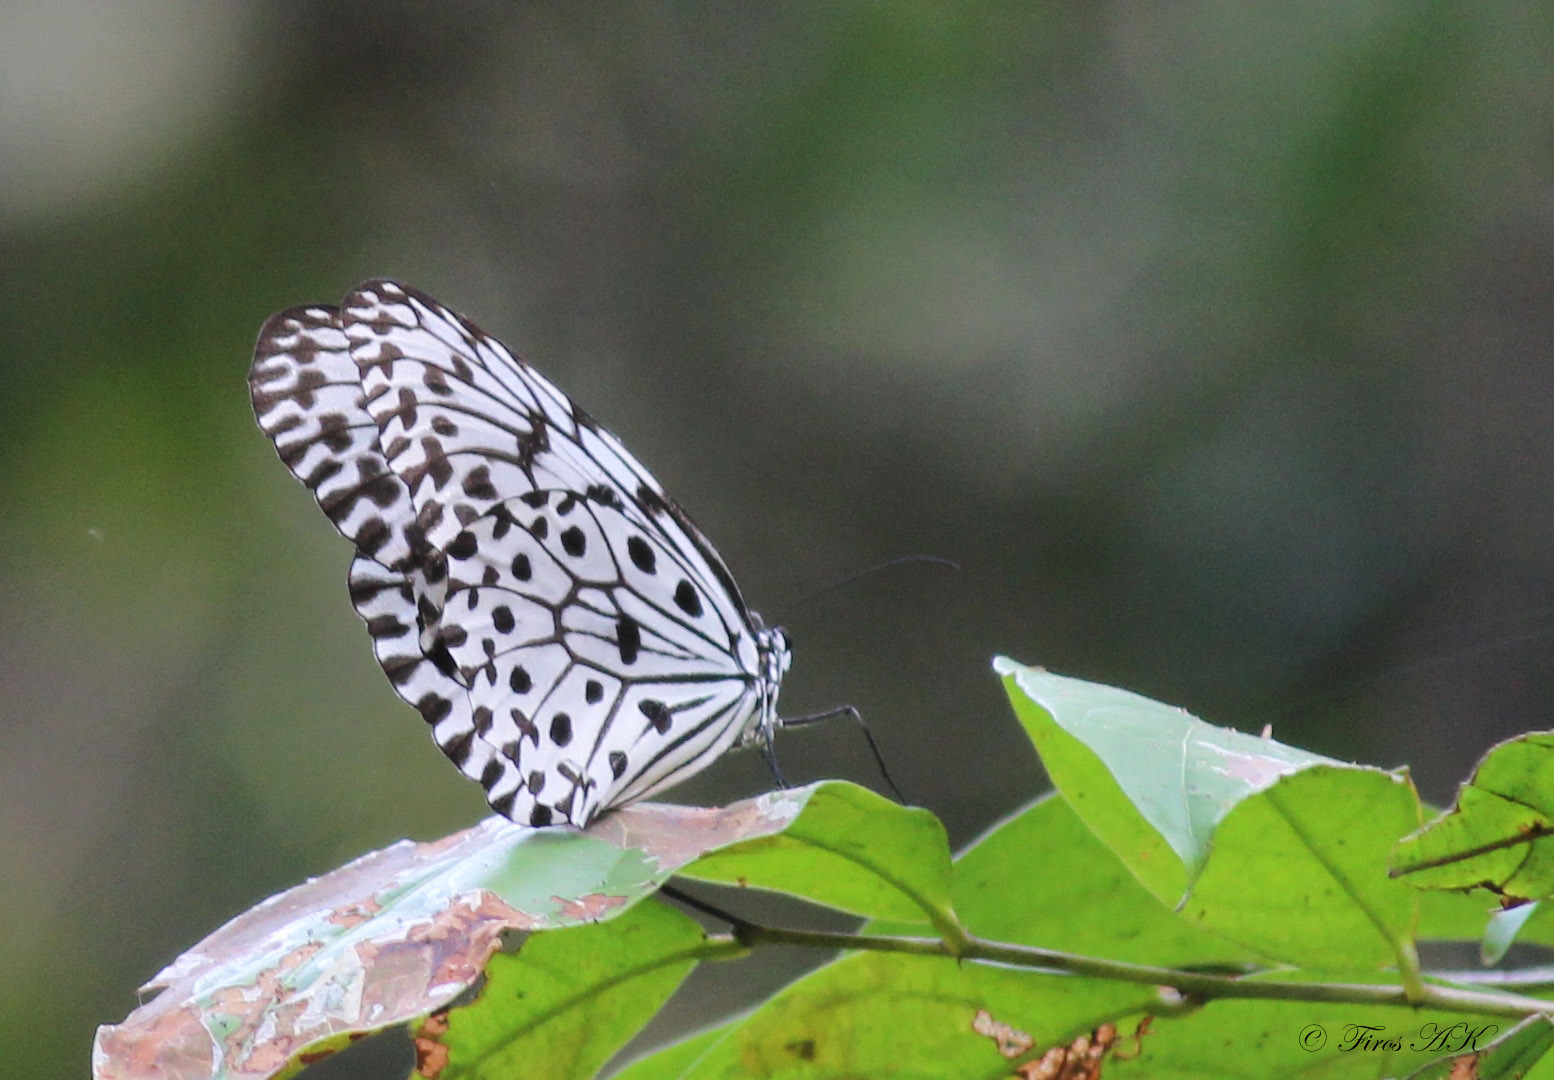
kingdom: Animalia
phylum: Arthropoda
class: Insecta
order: Lepidoptera
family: Nymphalidae
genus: Idea
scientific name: Idea malabarica
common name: Malabar tree-nymph
